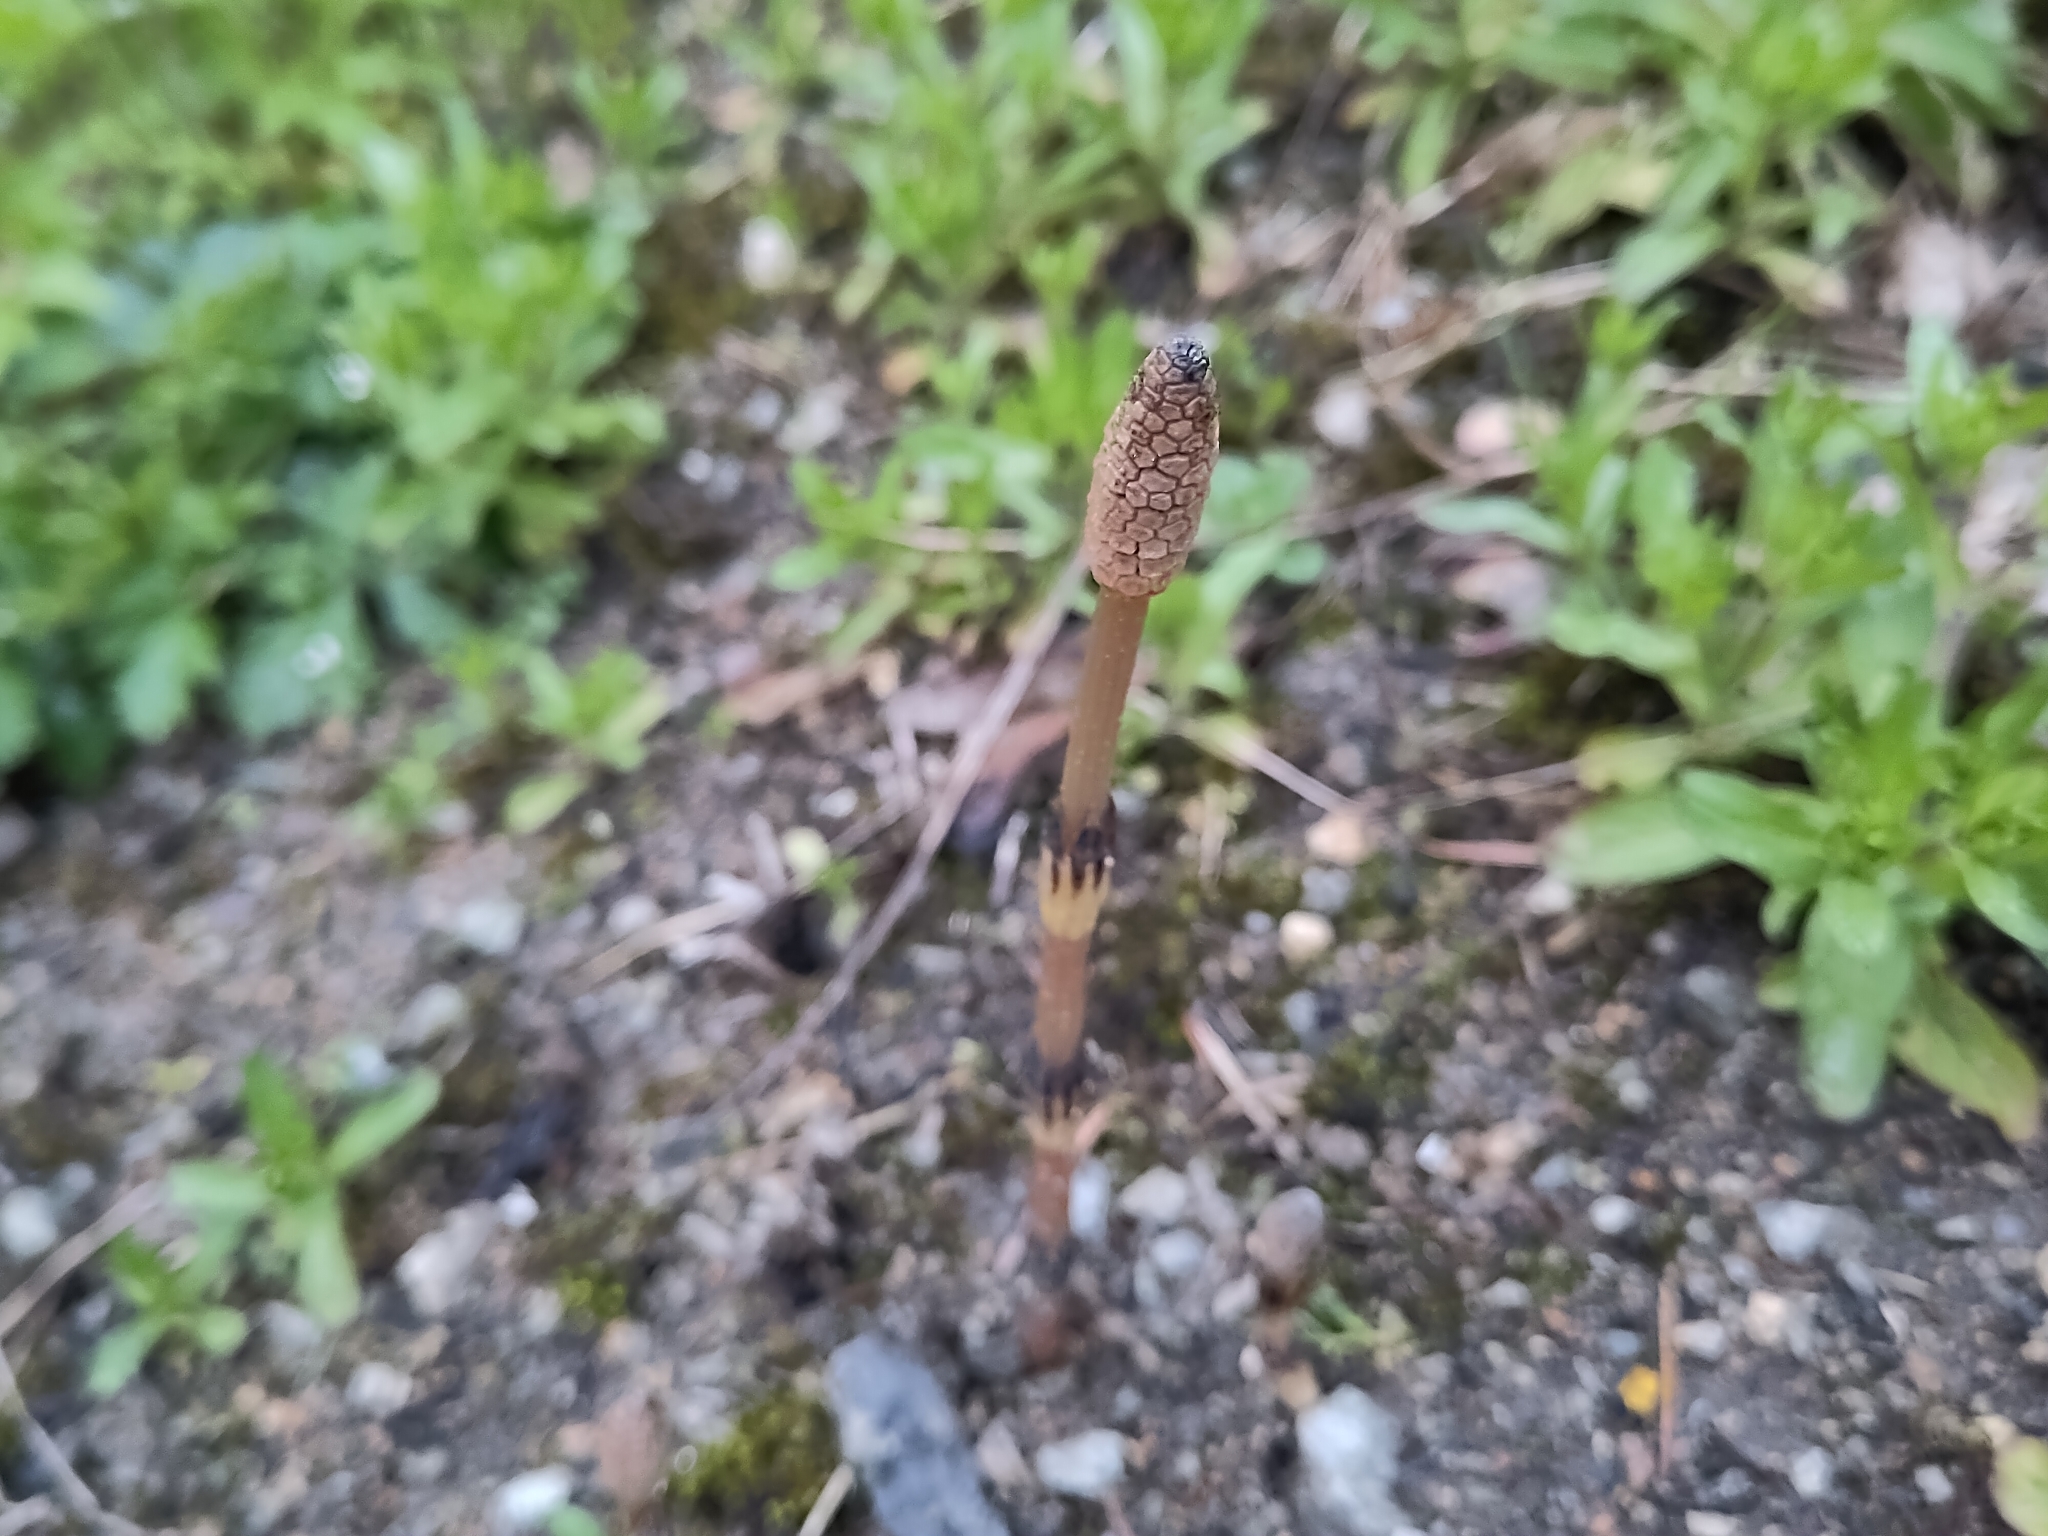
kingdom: Plantae
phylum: Tracheophyta
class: Polypodiopsida
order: Equisetales
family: Equisetaceae
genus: Equisetum
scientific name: Equisetum arvense
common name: Field horsetail
